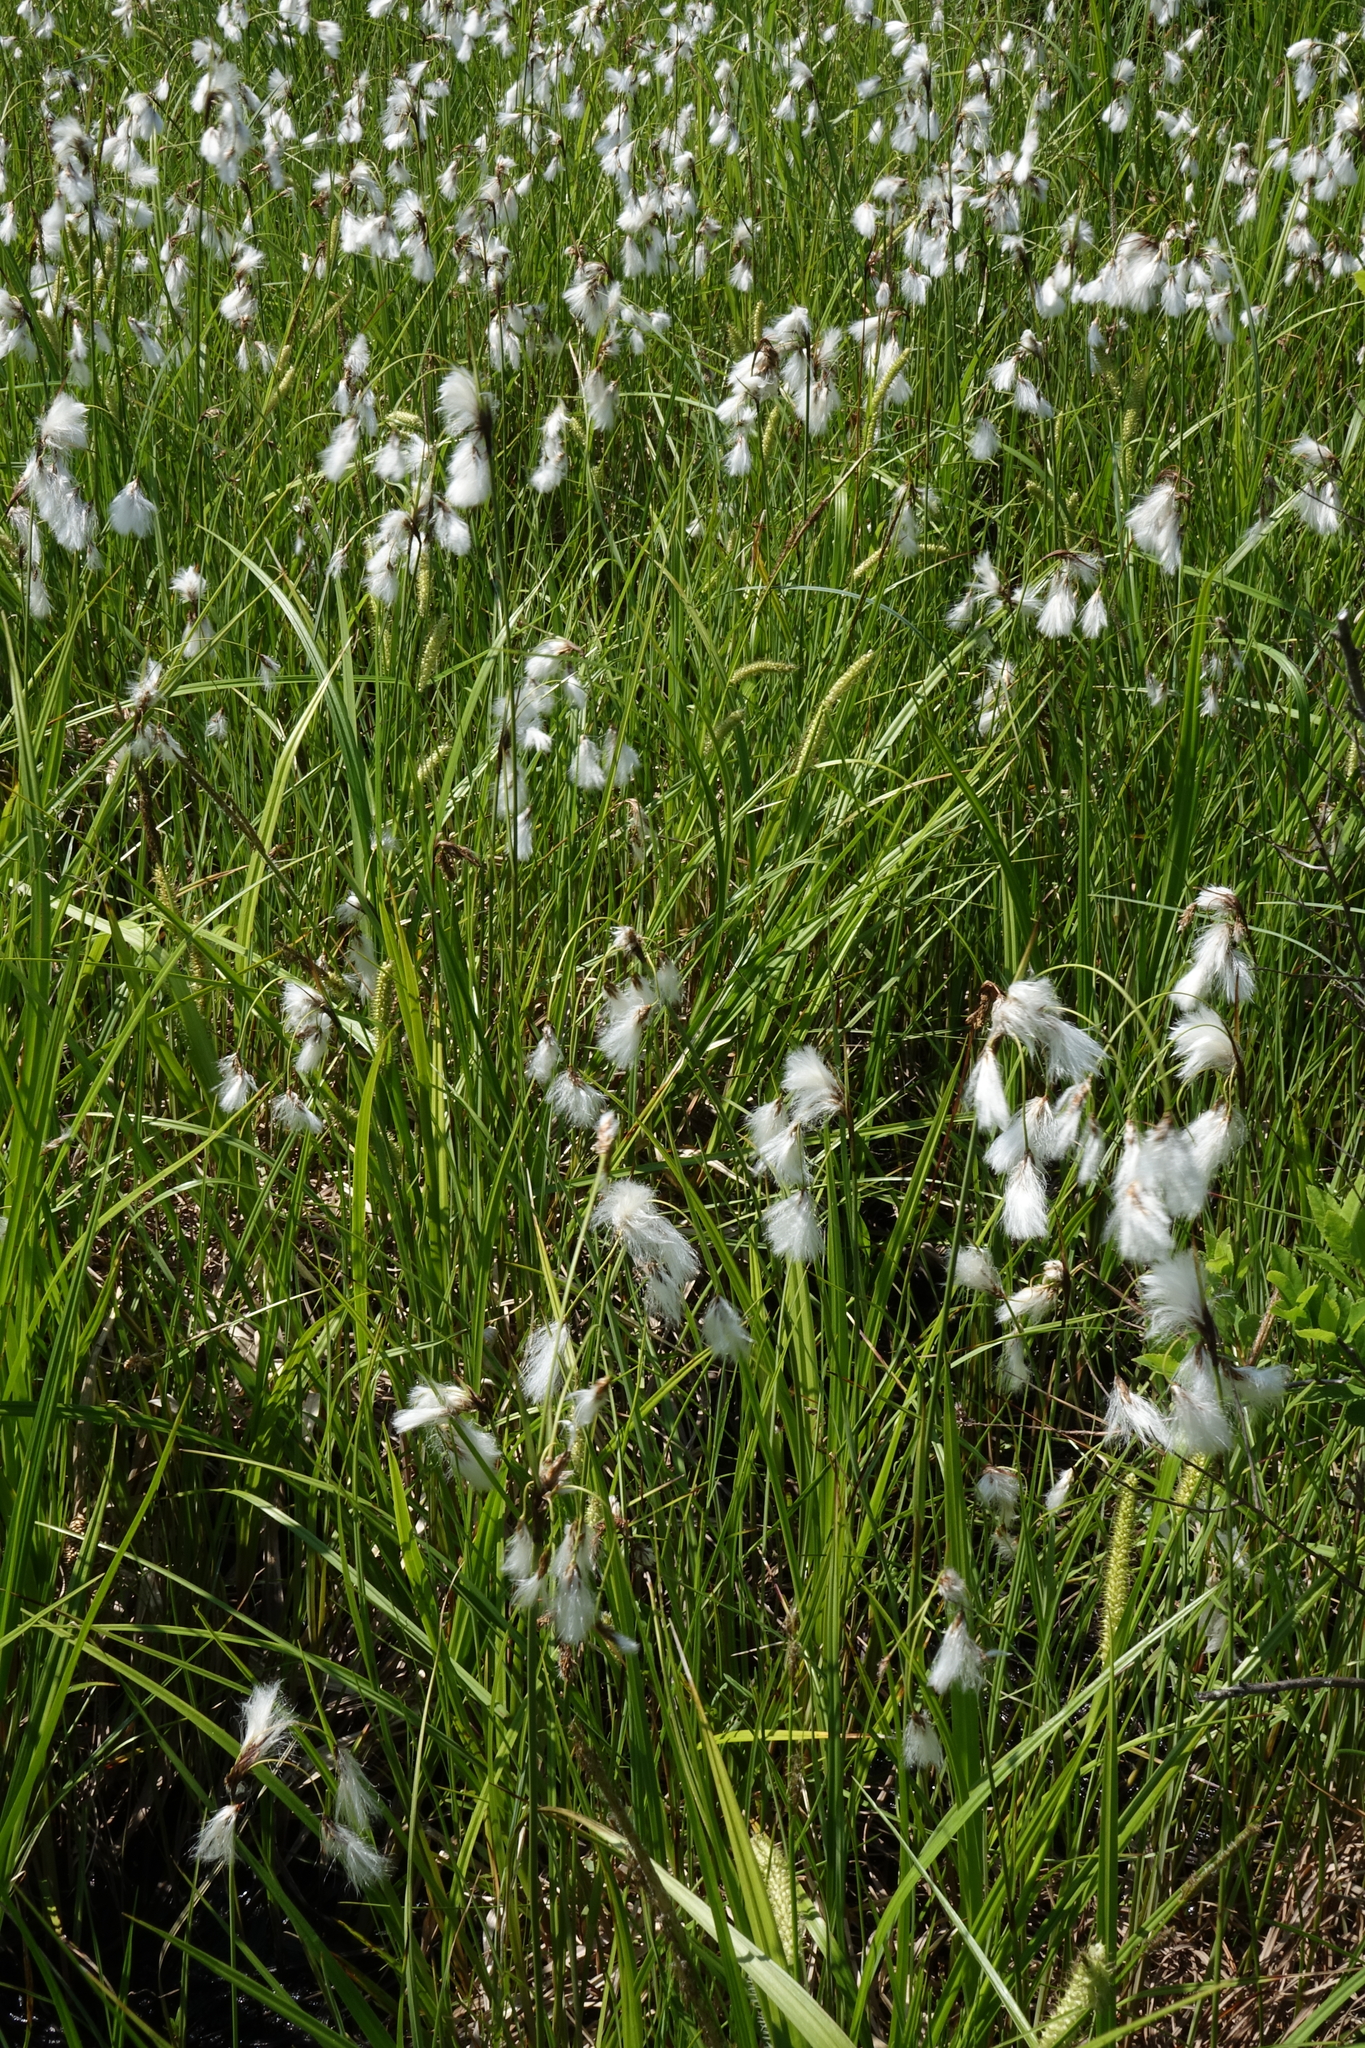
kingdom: Plantae
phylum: Tracheophyta
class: Liliopsida
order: Poales
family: Cyperaceae
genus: Eriophorum
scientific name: Eriophorum angustifolium
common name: Common cottongrass
